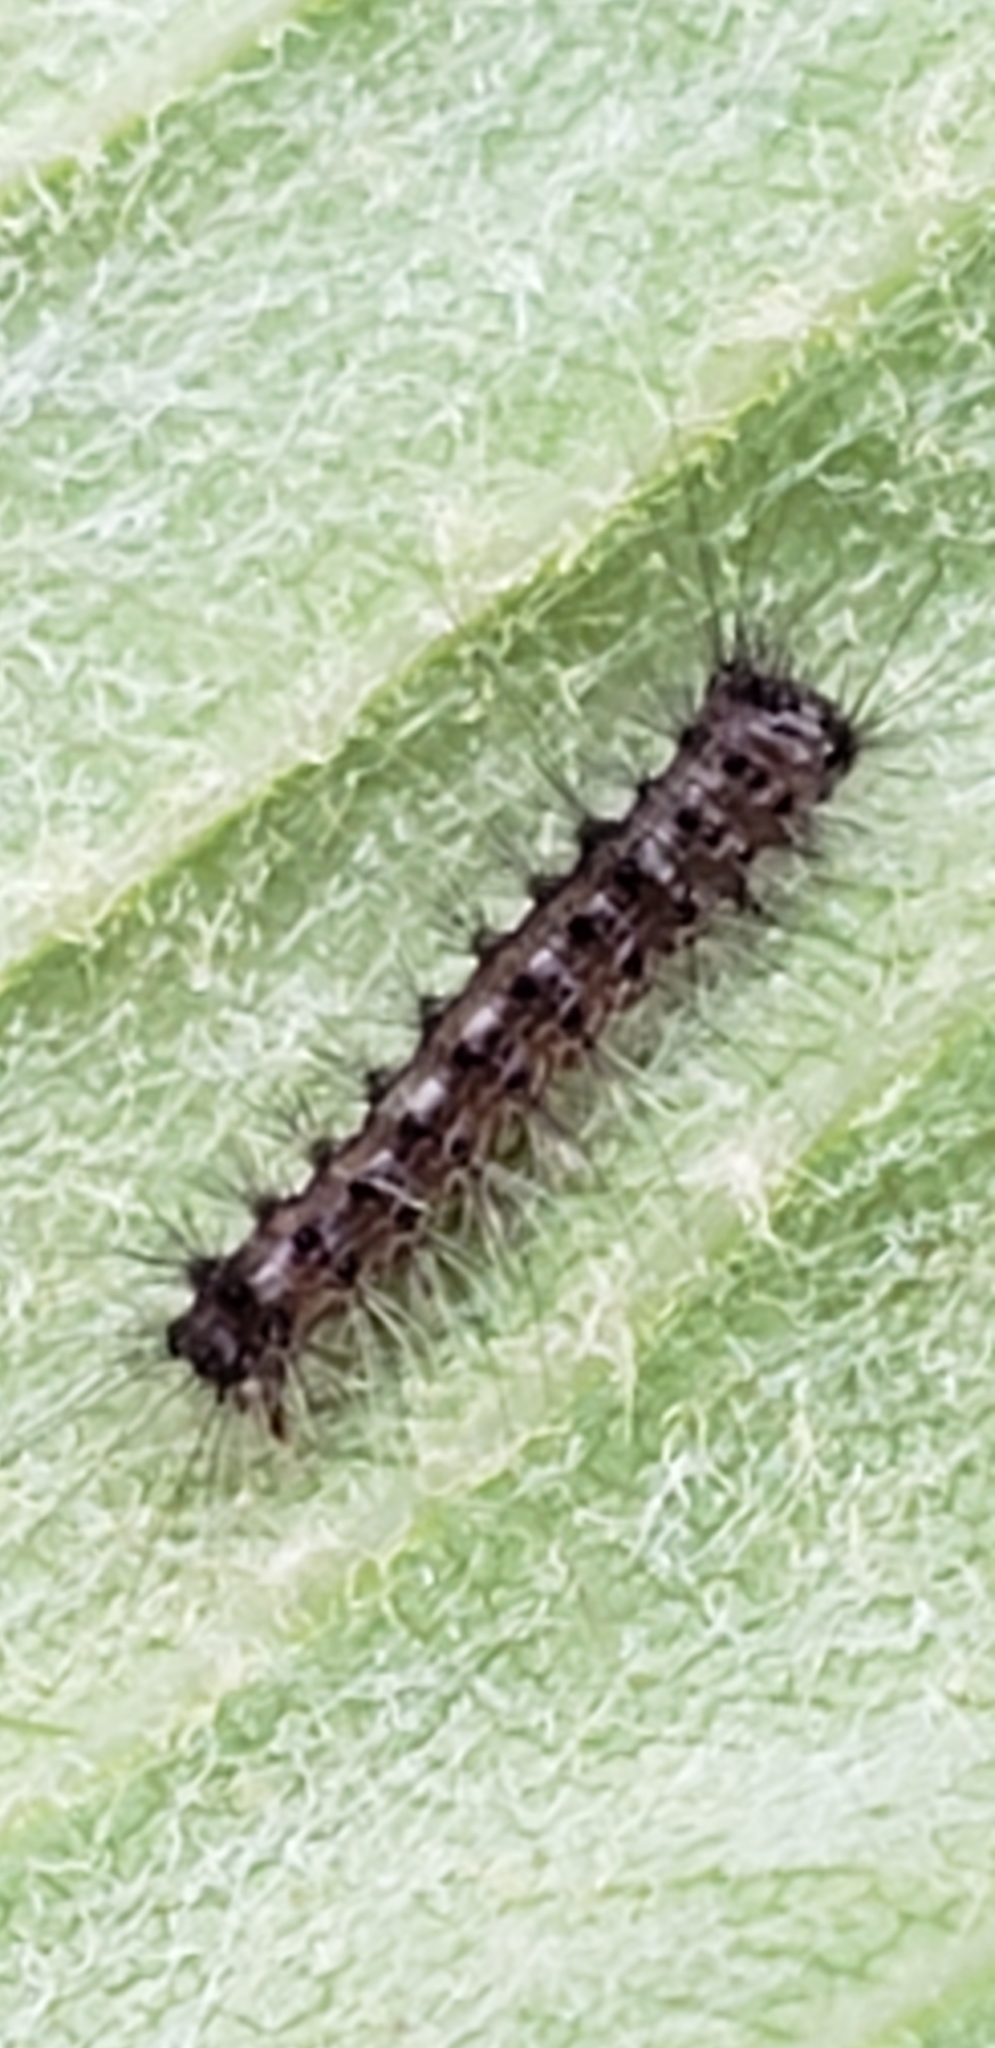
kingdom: Animalia
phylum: Arthropoda
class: Insecta
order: Lepidoptera
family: Erebidae
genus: Lymantria
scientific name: Lymantria dispar
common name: Gypsy moth
